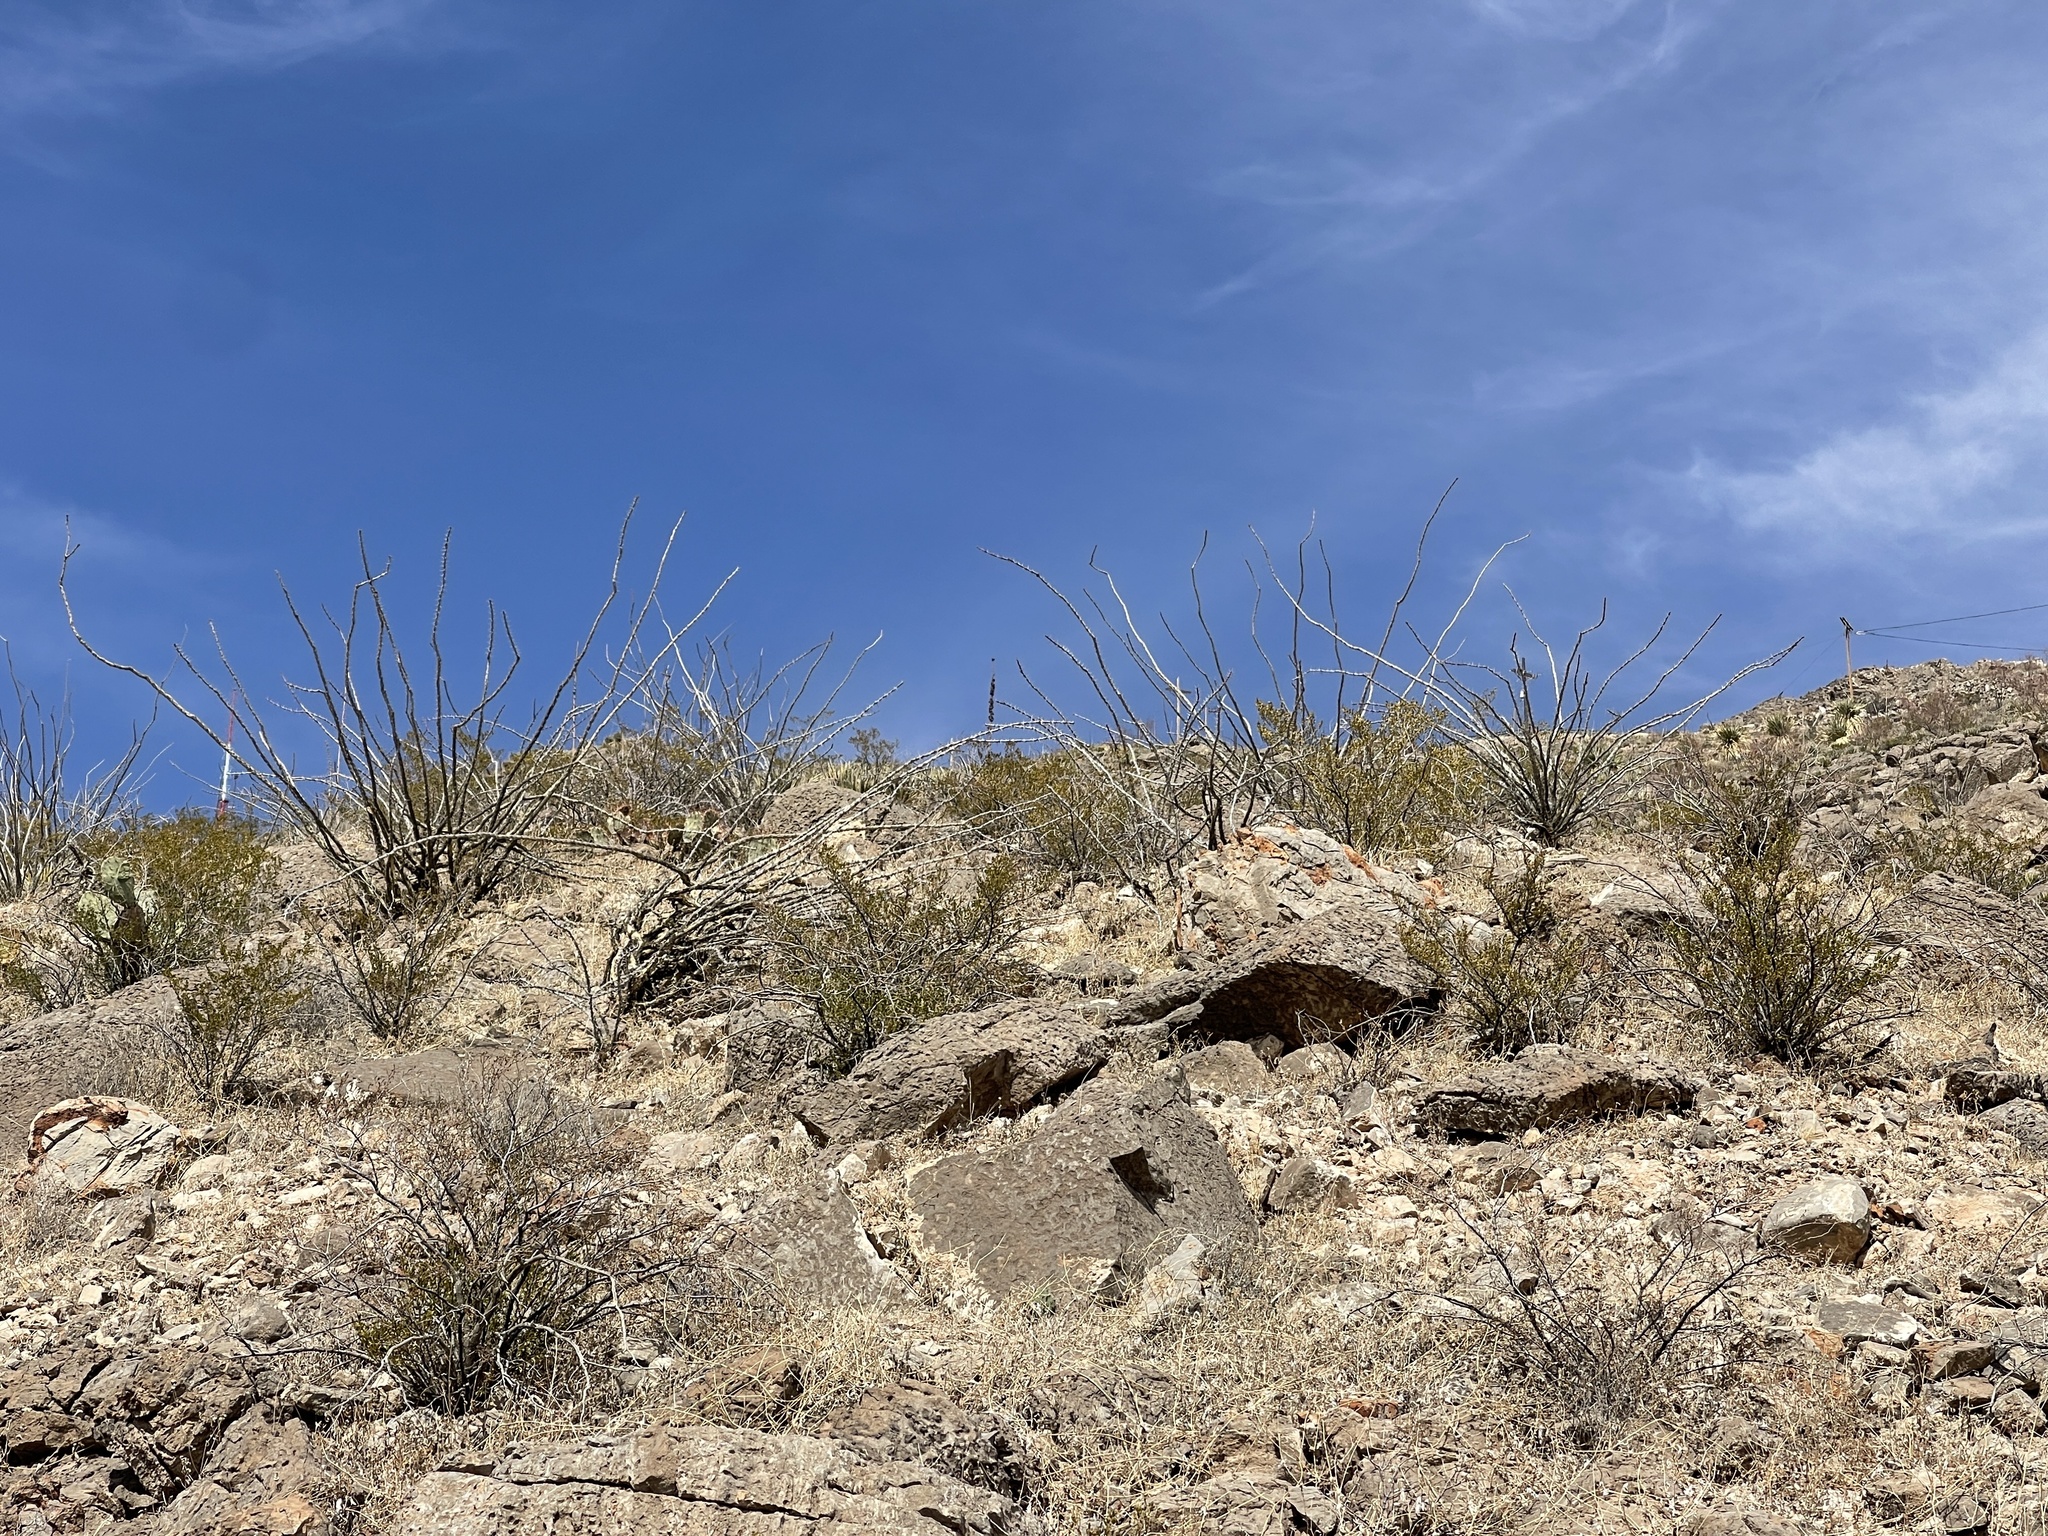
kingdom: Plantae
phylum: Tracheophyta
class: Magnoliopsida
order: Ericales
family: Fouquieriaceae
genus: Fouquieria
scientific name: Fouquieria splendens
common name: Vine-cactus
